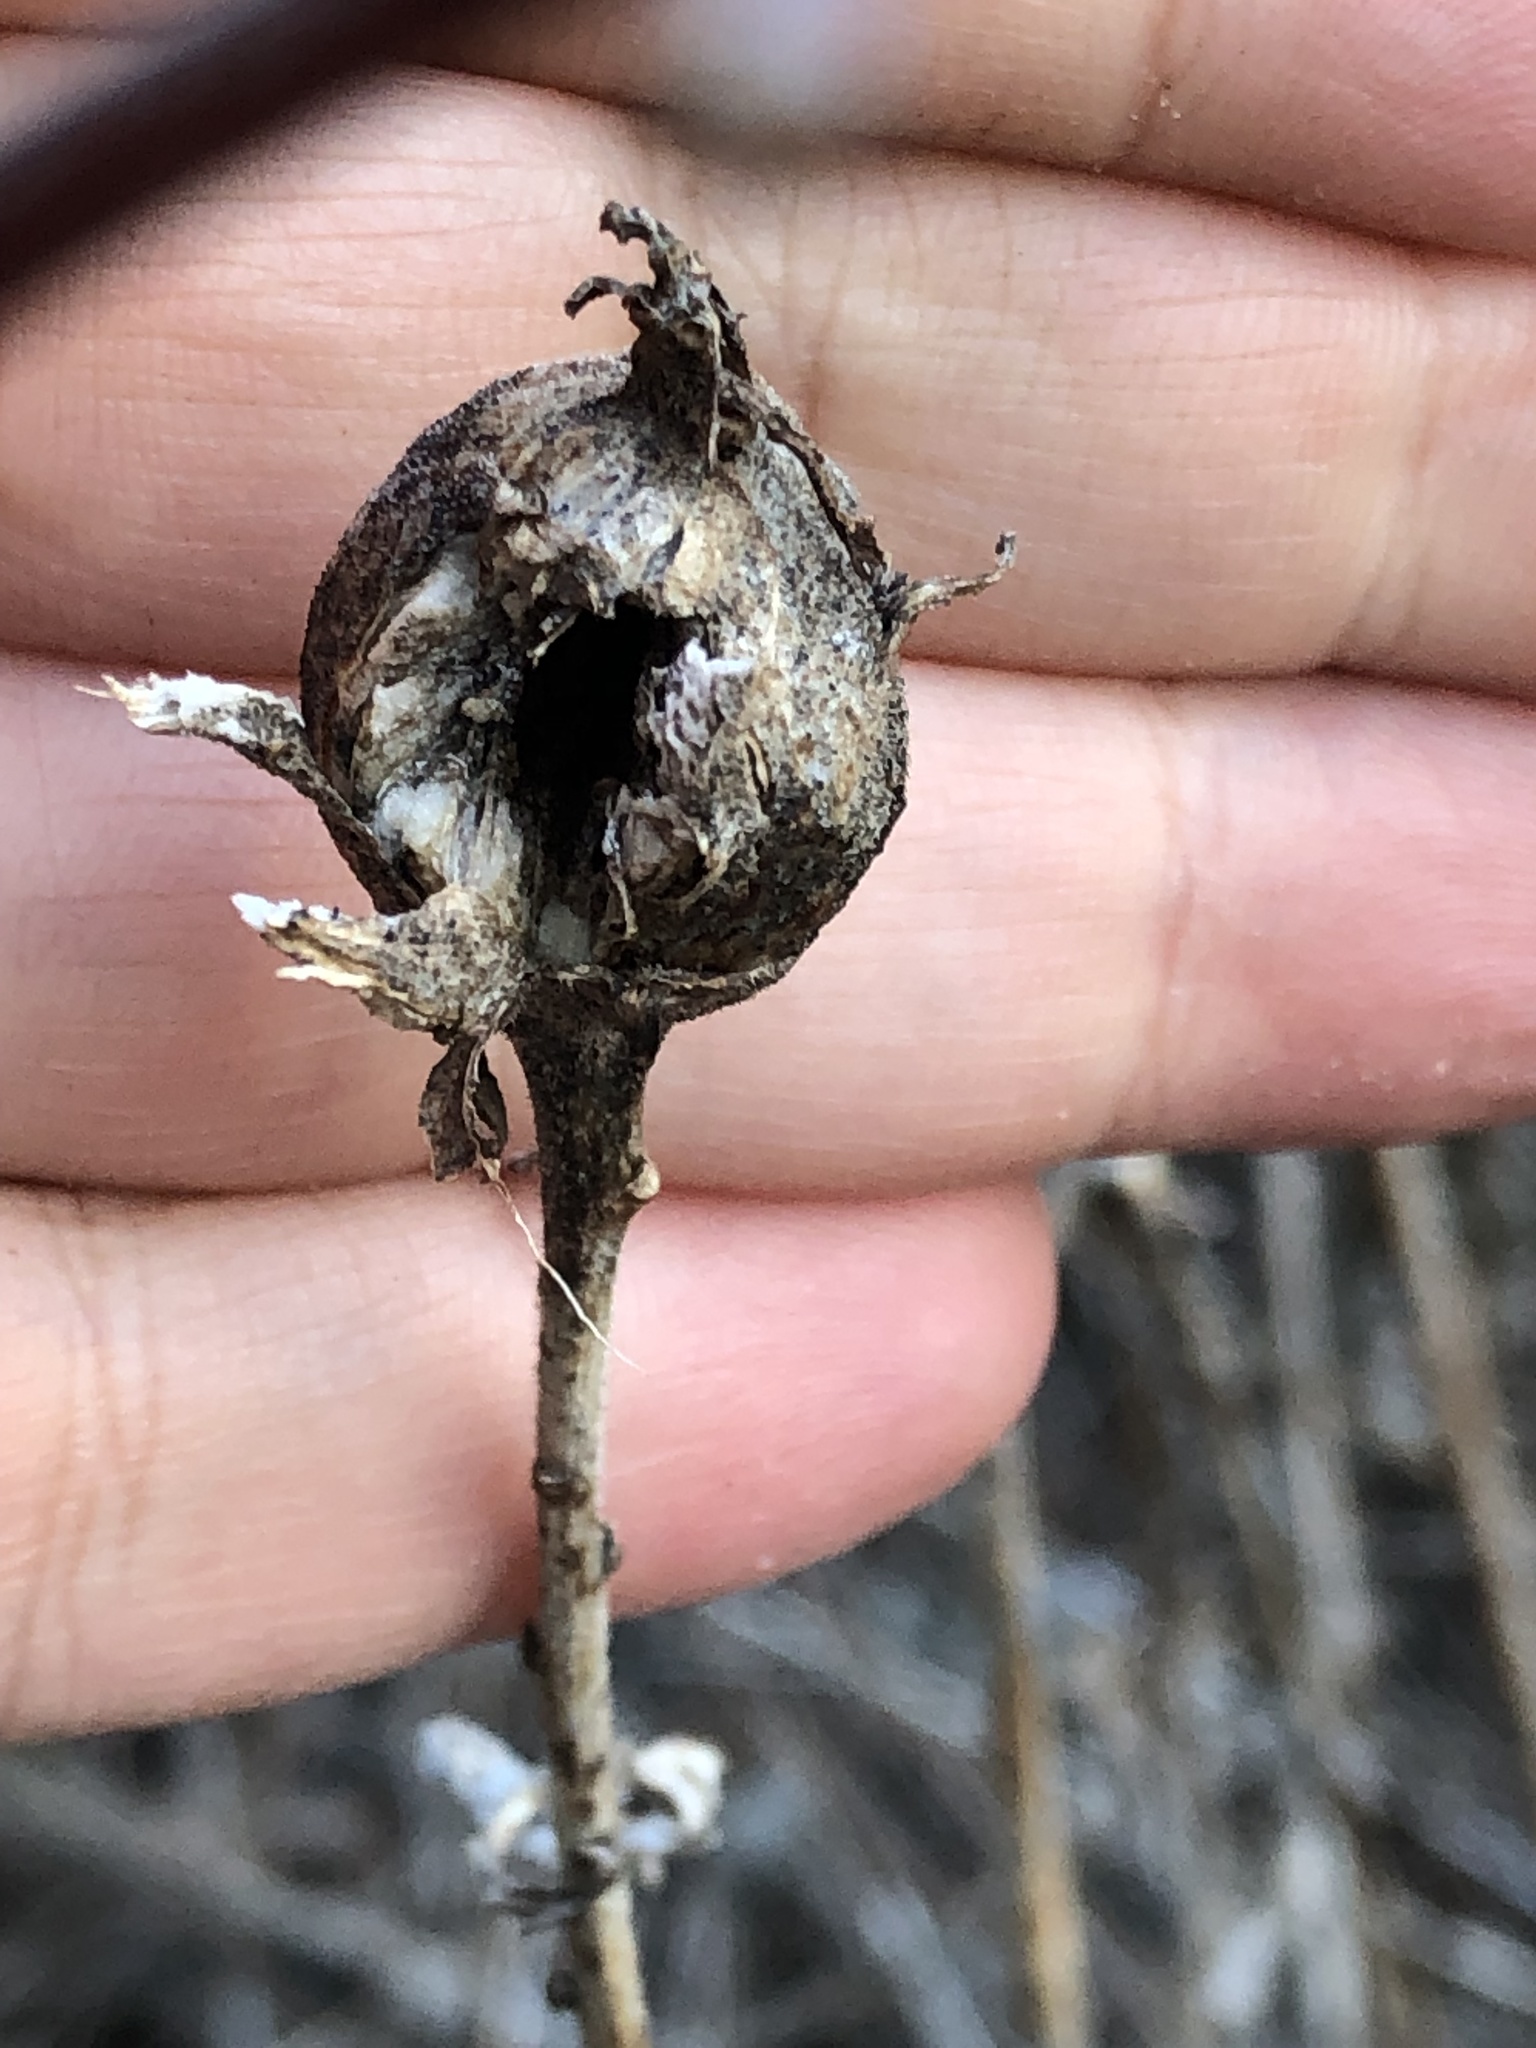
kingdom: Animalia
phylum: Arthropoda
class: Insecta
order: Diptera
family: Tephritidae
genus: Eurosta
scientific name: Eurosta solidaginis
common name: Goldenrod gall fly
